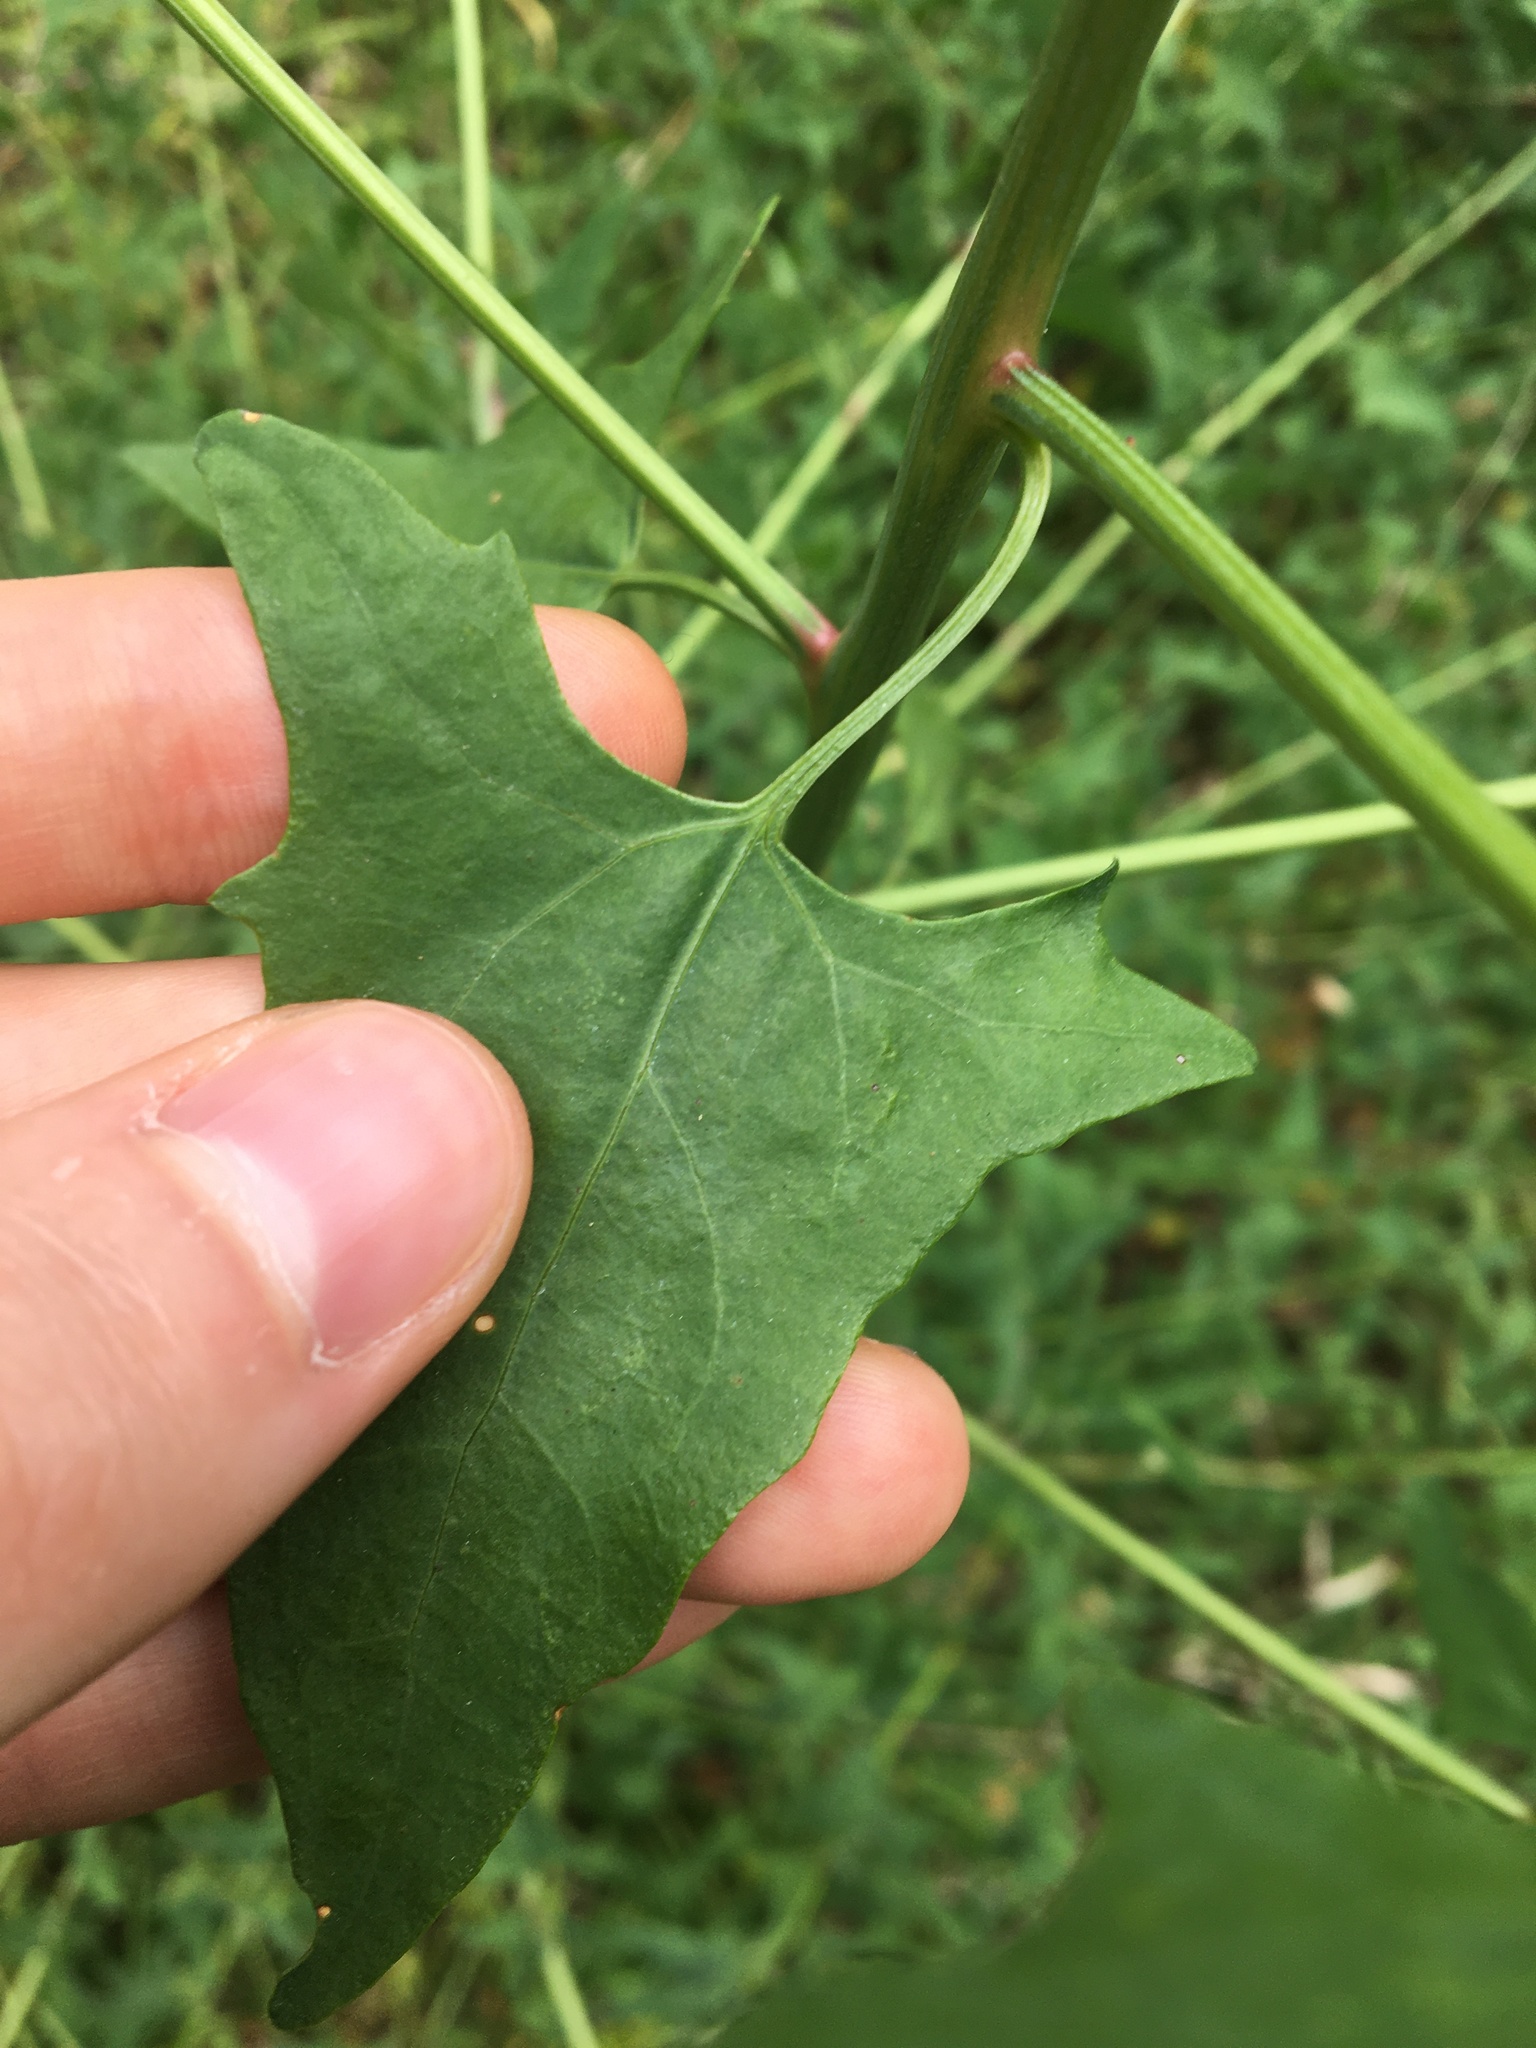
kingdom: Plantae
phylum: Tracheophyta
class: Magnoliopsida
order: Caryophyllales
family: Amaranthaceae
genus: Atriplex
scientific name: Atriplex prostrata
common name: Spear-leaved orache
